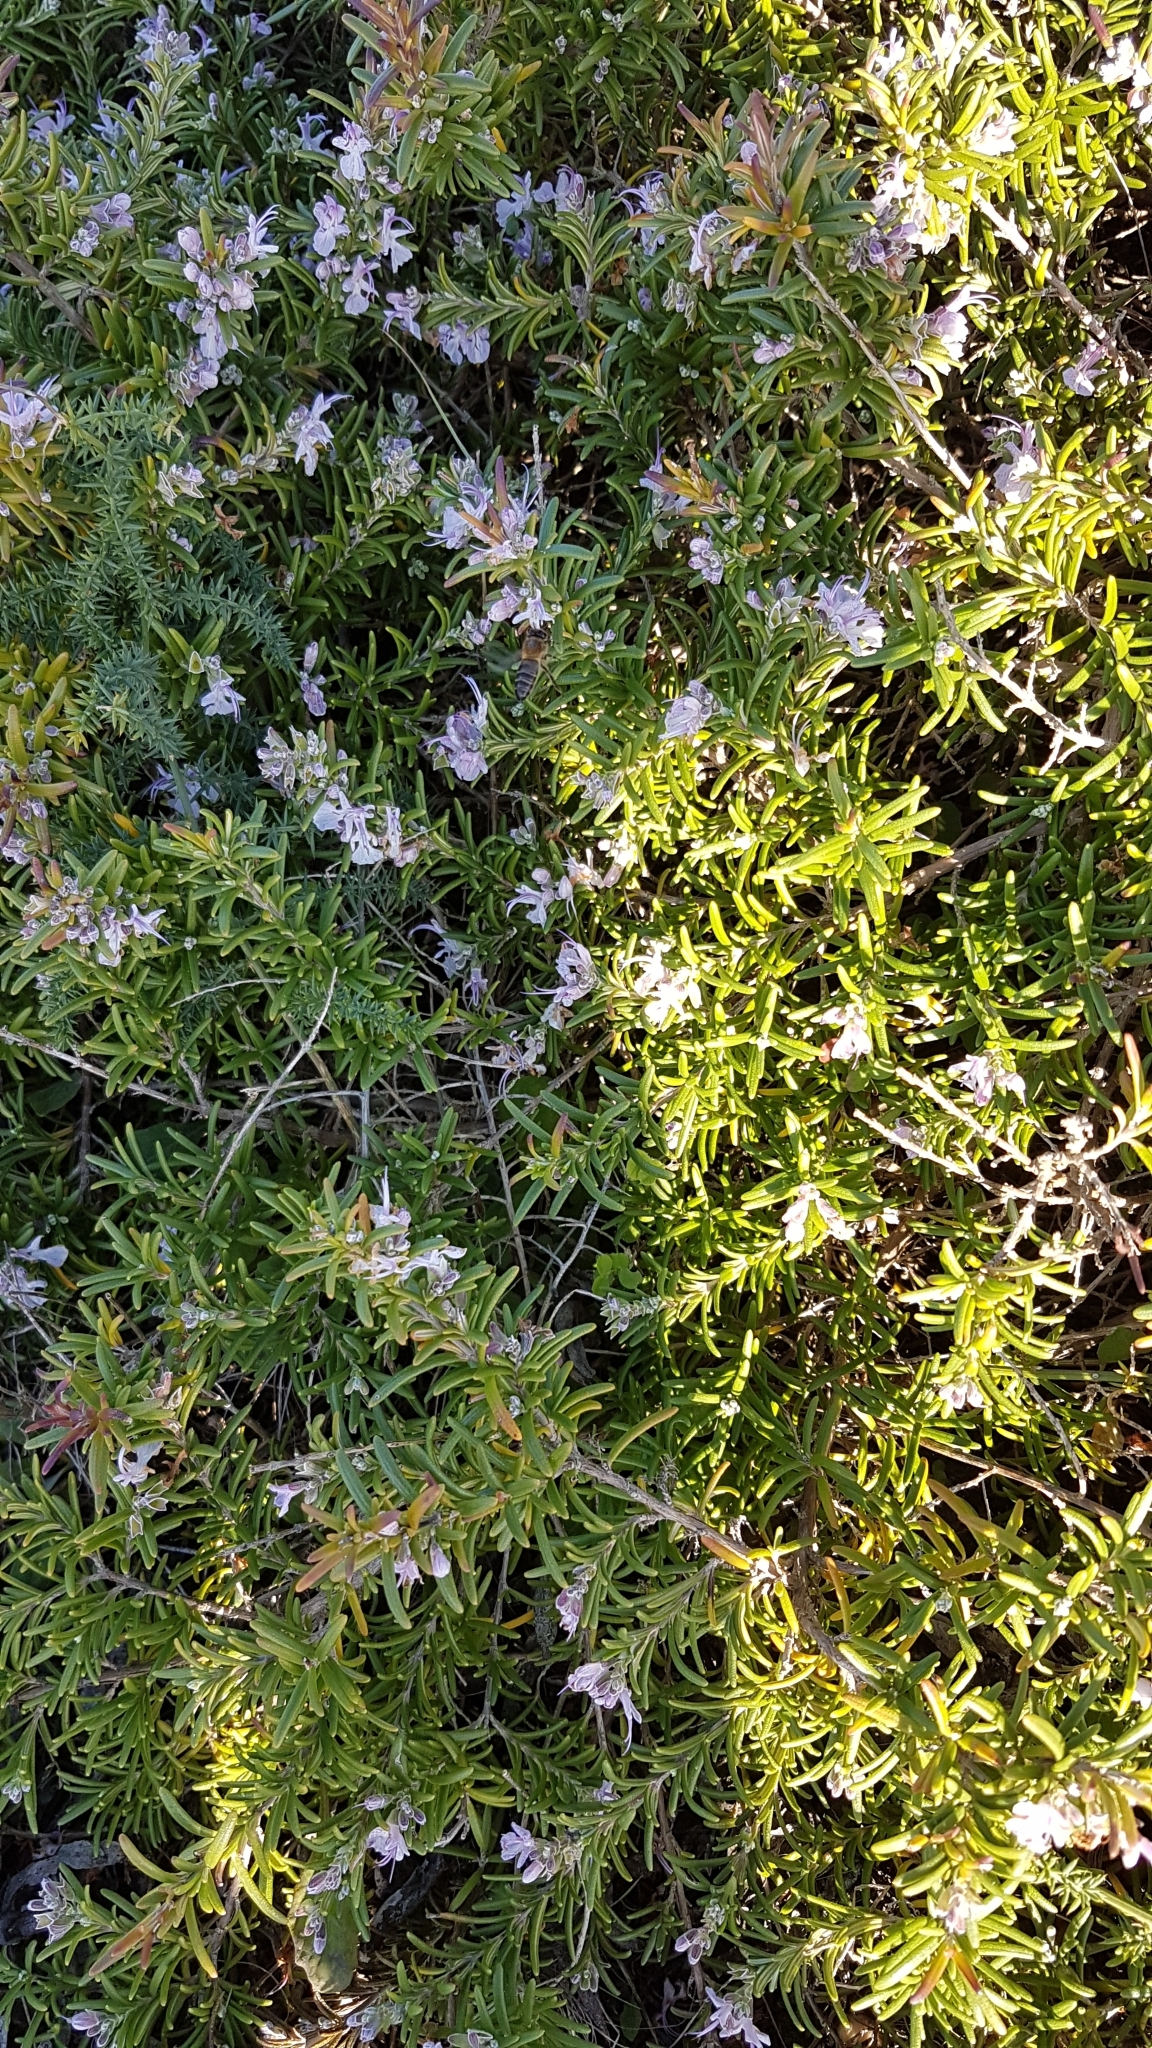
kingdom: Plantae
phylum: Tracheophyta
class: Magnoliopsida
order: Lamiales
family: Lamiaceae
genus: Salvia
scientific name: Salvia rosmarinus
